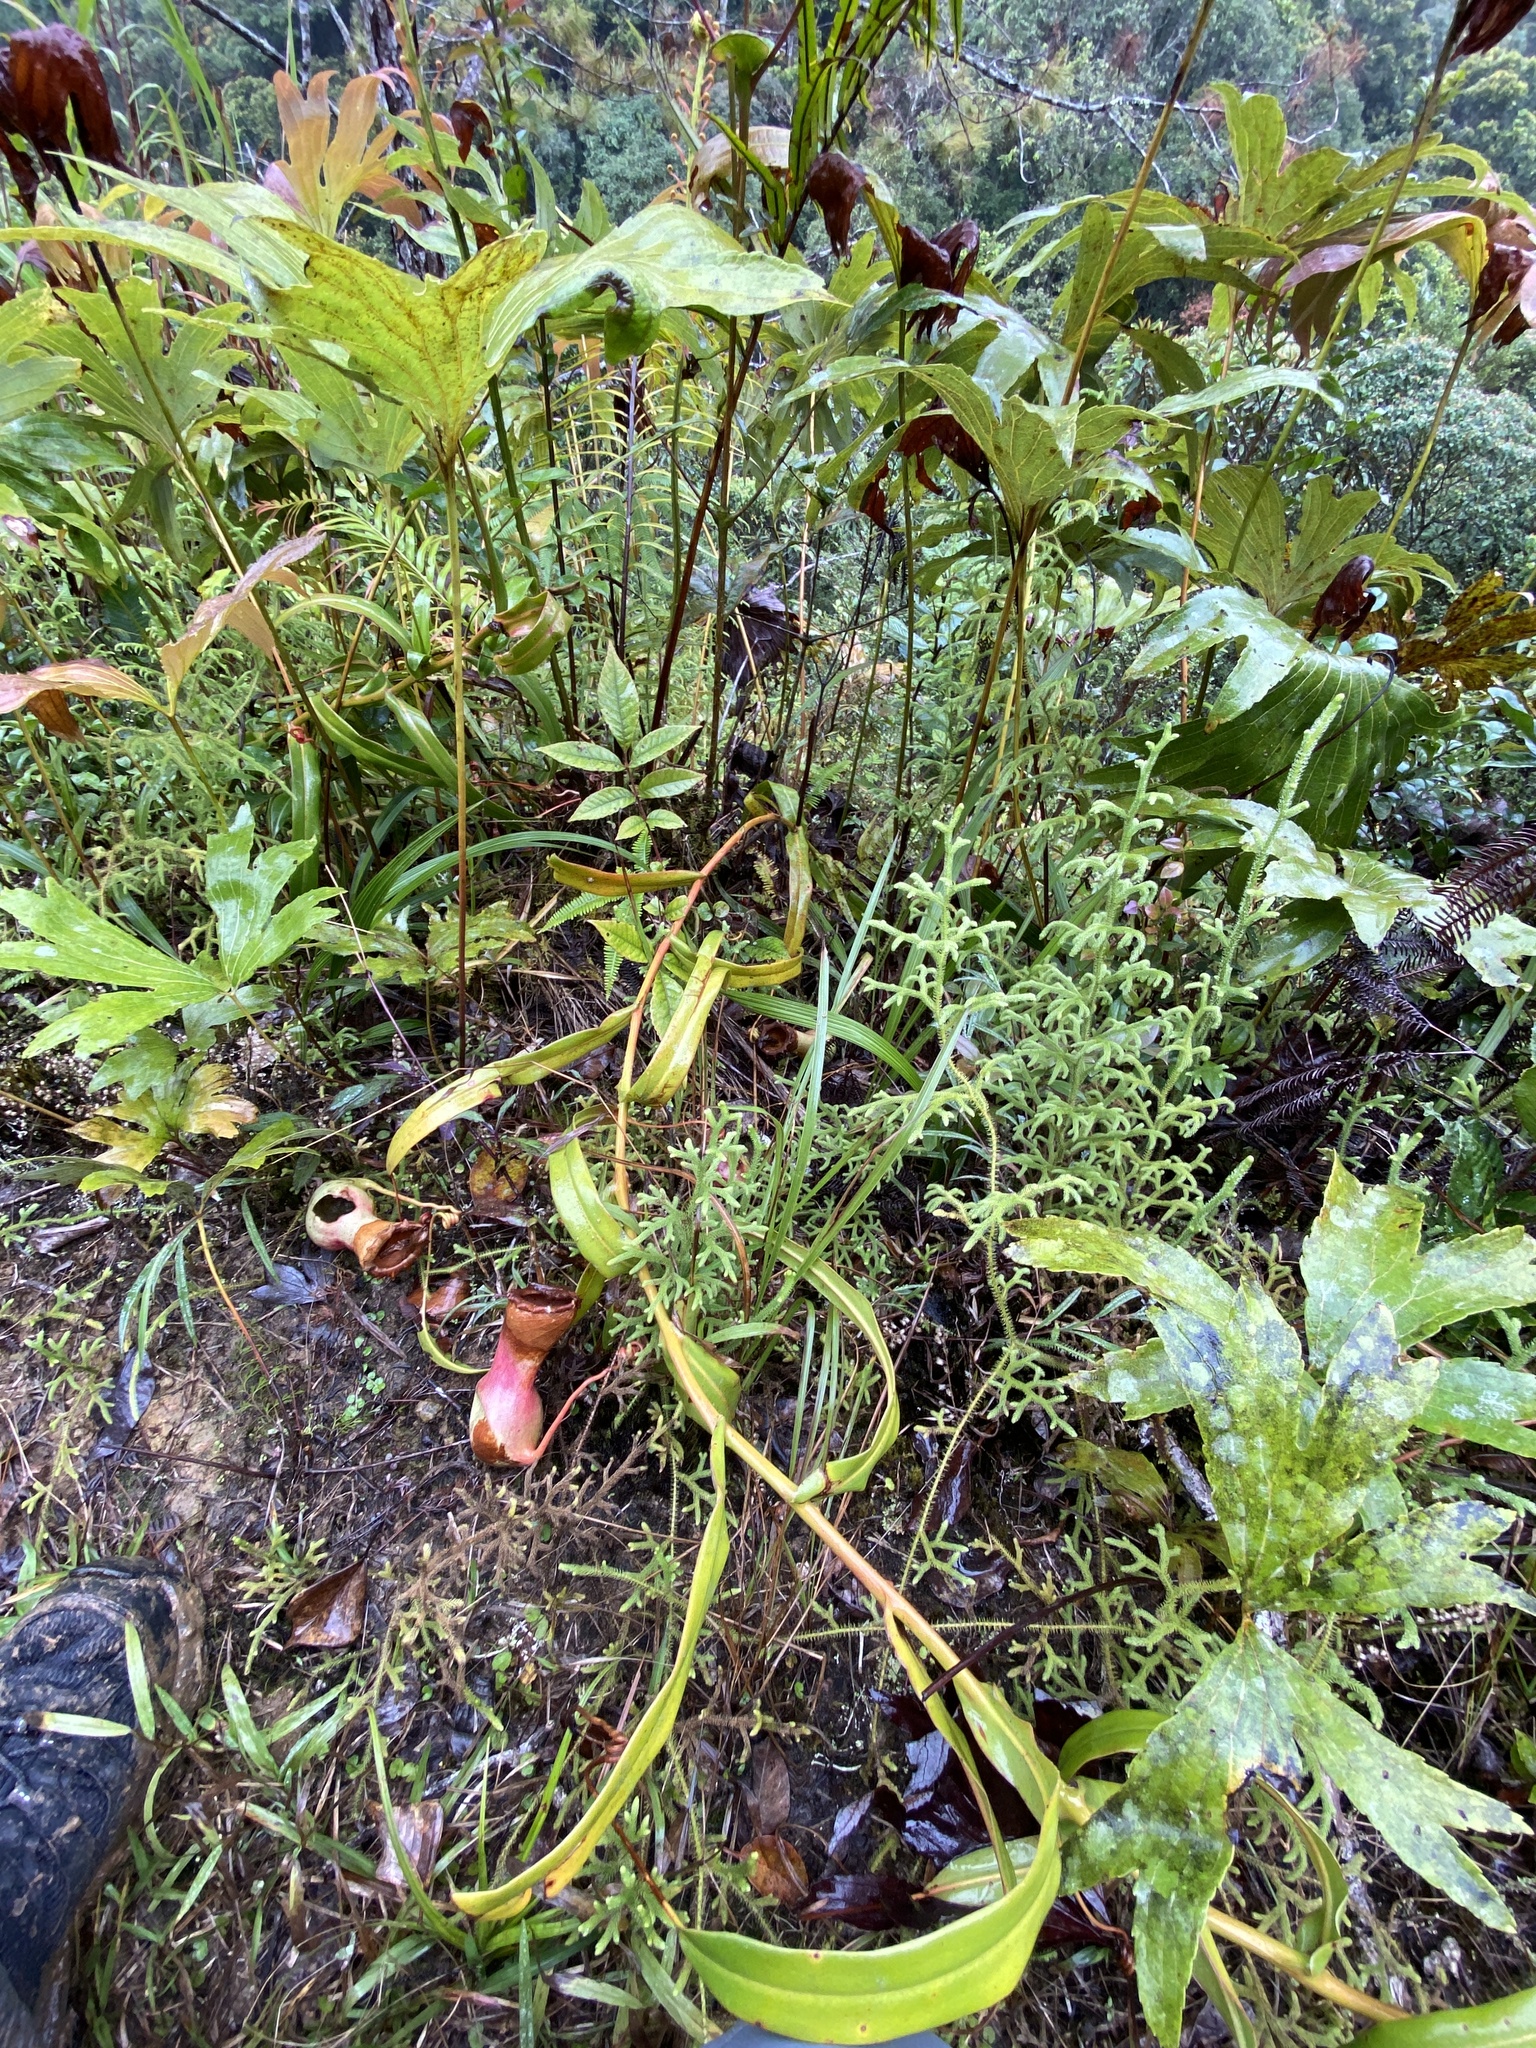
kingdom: Plantae
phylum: Tracheophyta
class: Magnoliopsida
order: Caryophyllales
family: Nepenthaceae
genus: Nepenthes
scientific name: Nepenthes ventricosa
